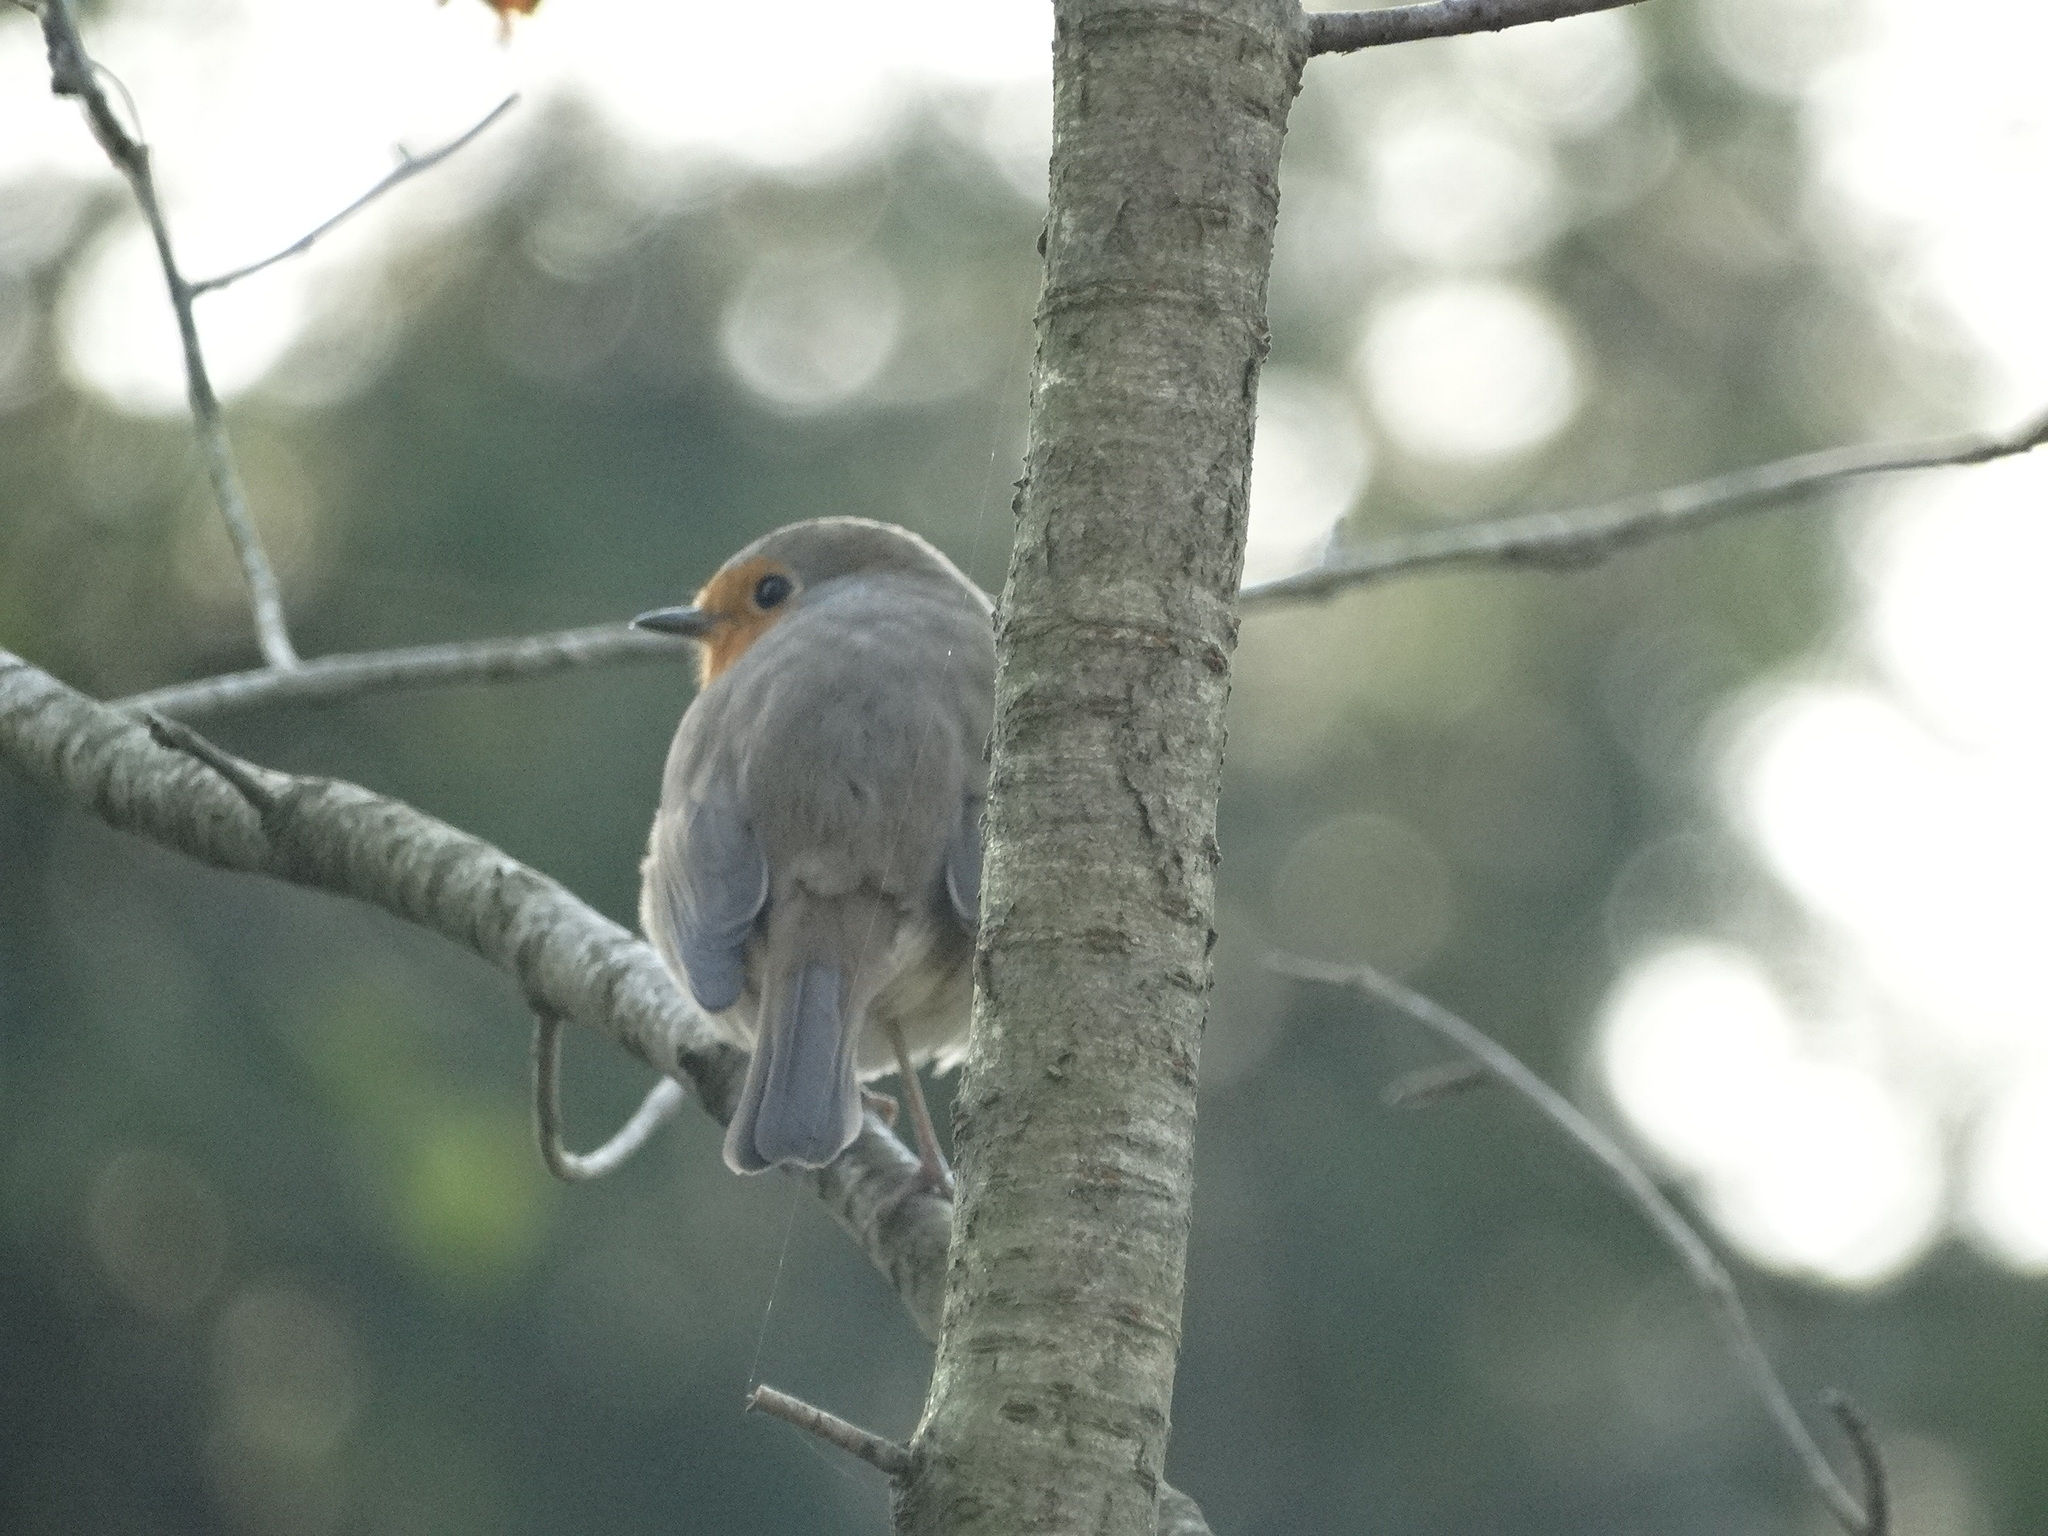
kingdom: Animalia
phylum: Chordata
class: Aves
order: Passeriformes
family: Muscicapidae
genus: Erithacus
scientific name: Erithacus rubecula
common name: European robin
